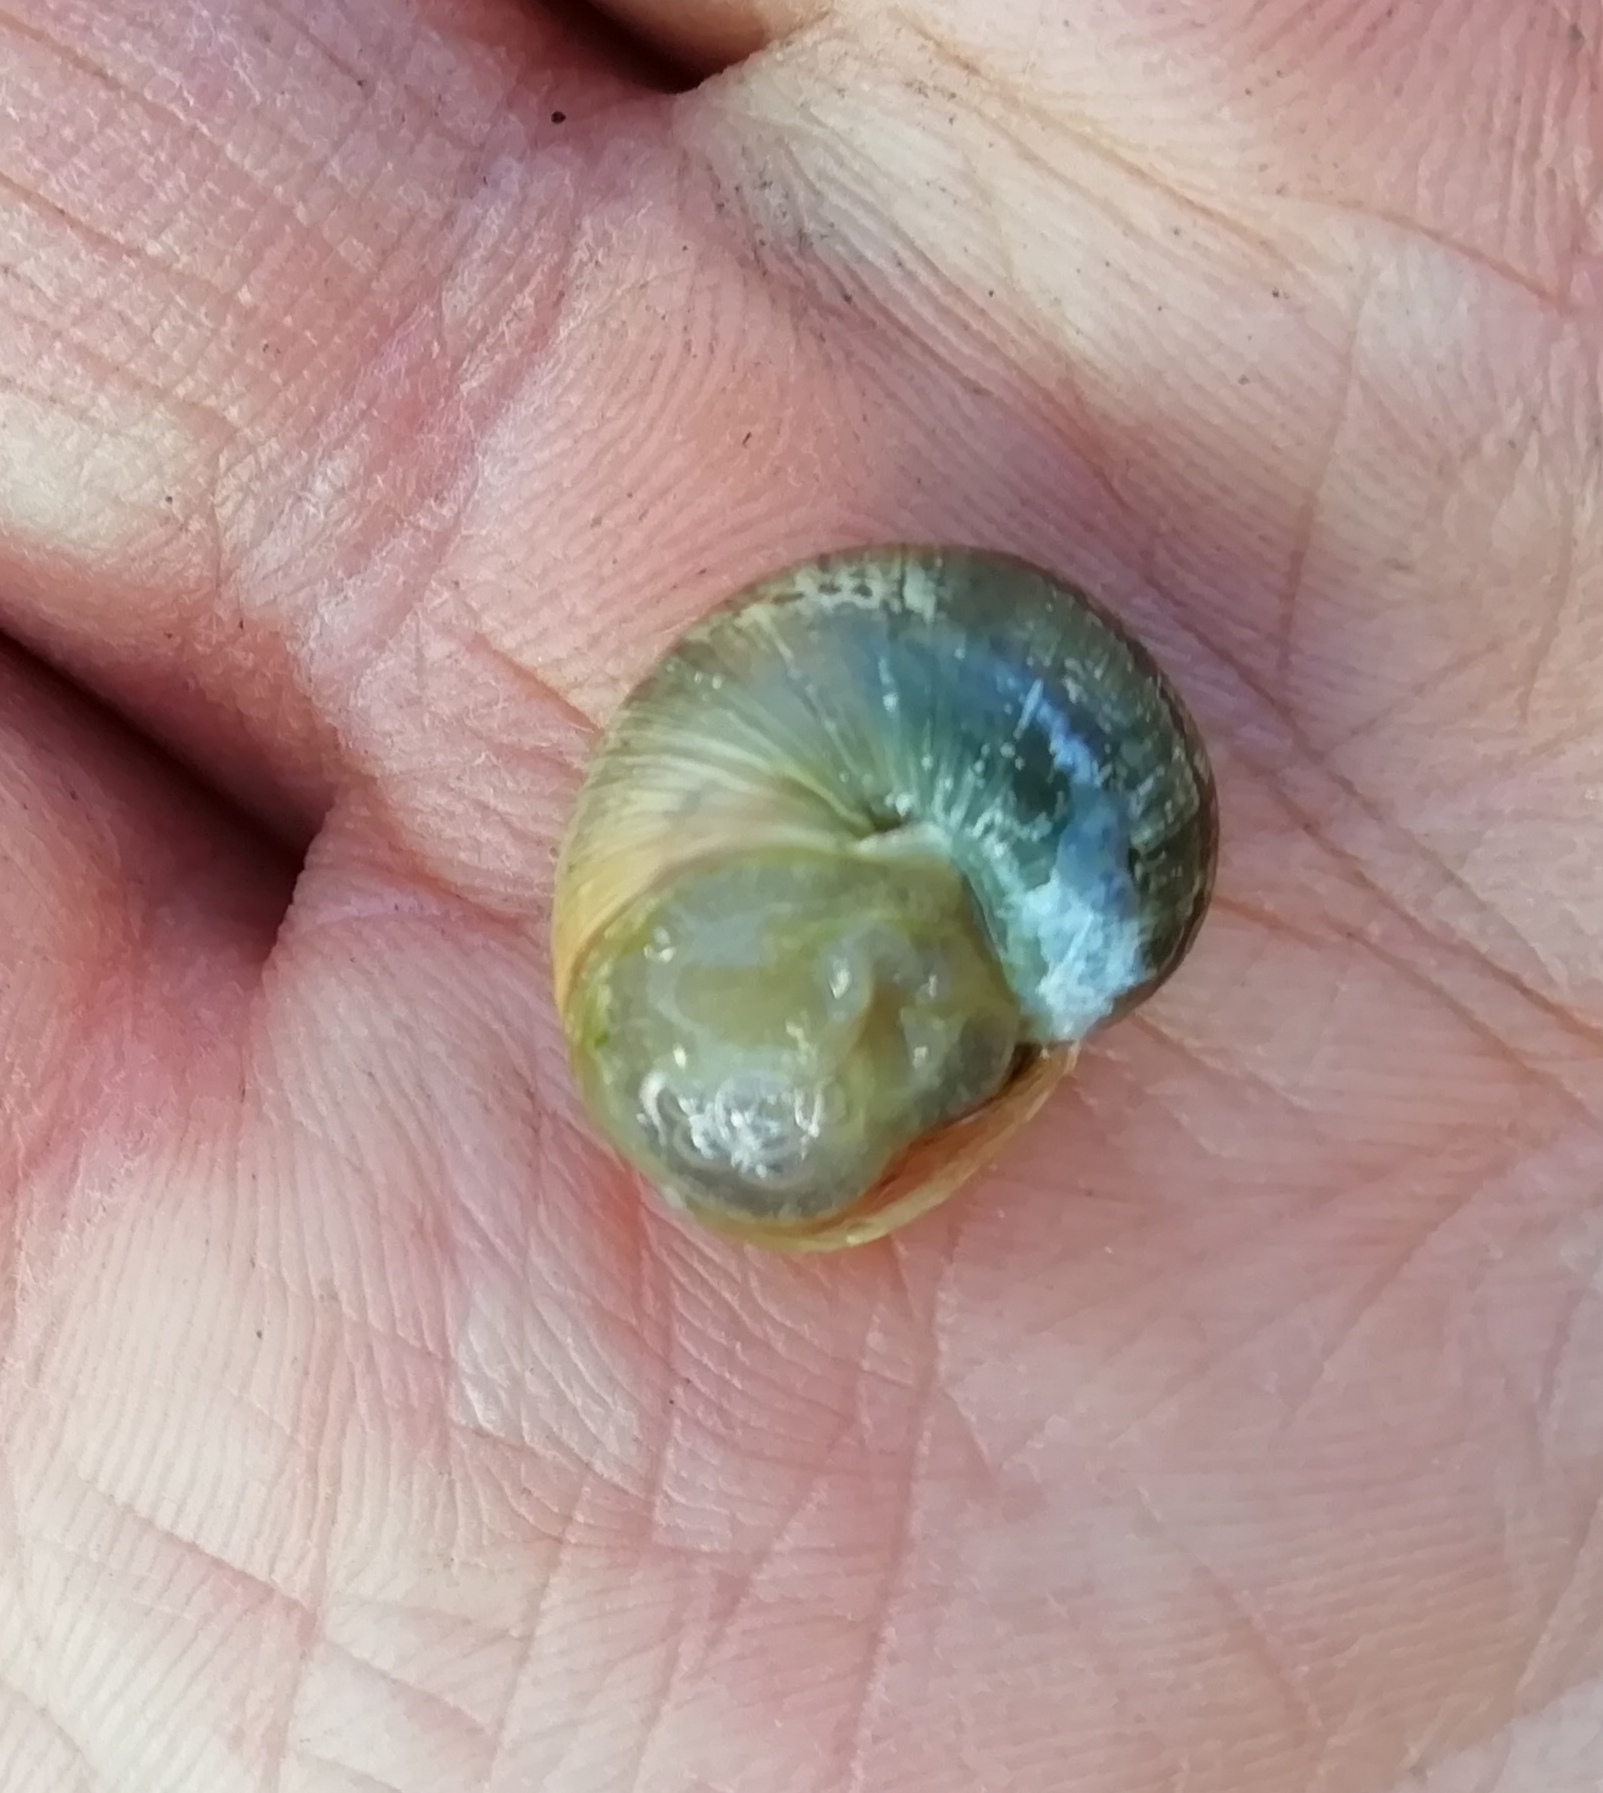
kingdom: Animalia
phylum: Mollusca
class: Gastropoda
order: Stylommatophora
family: Helicidae
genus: Cornu
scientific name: Cornu aspersum
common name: Brown garden snail
